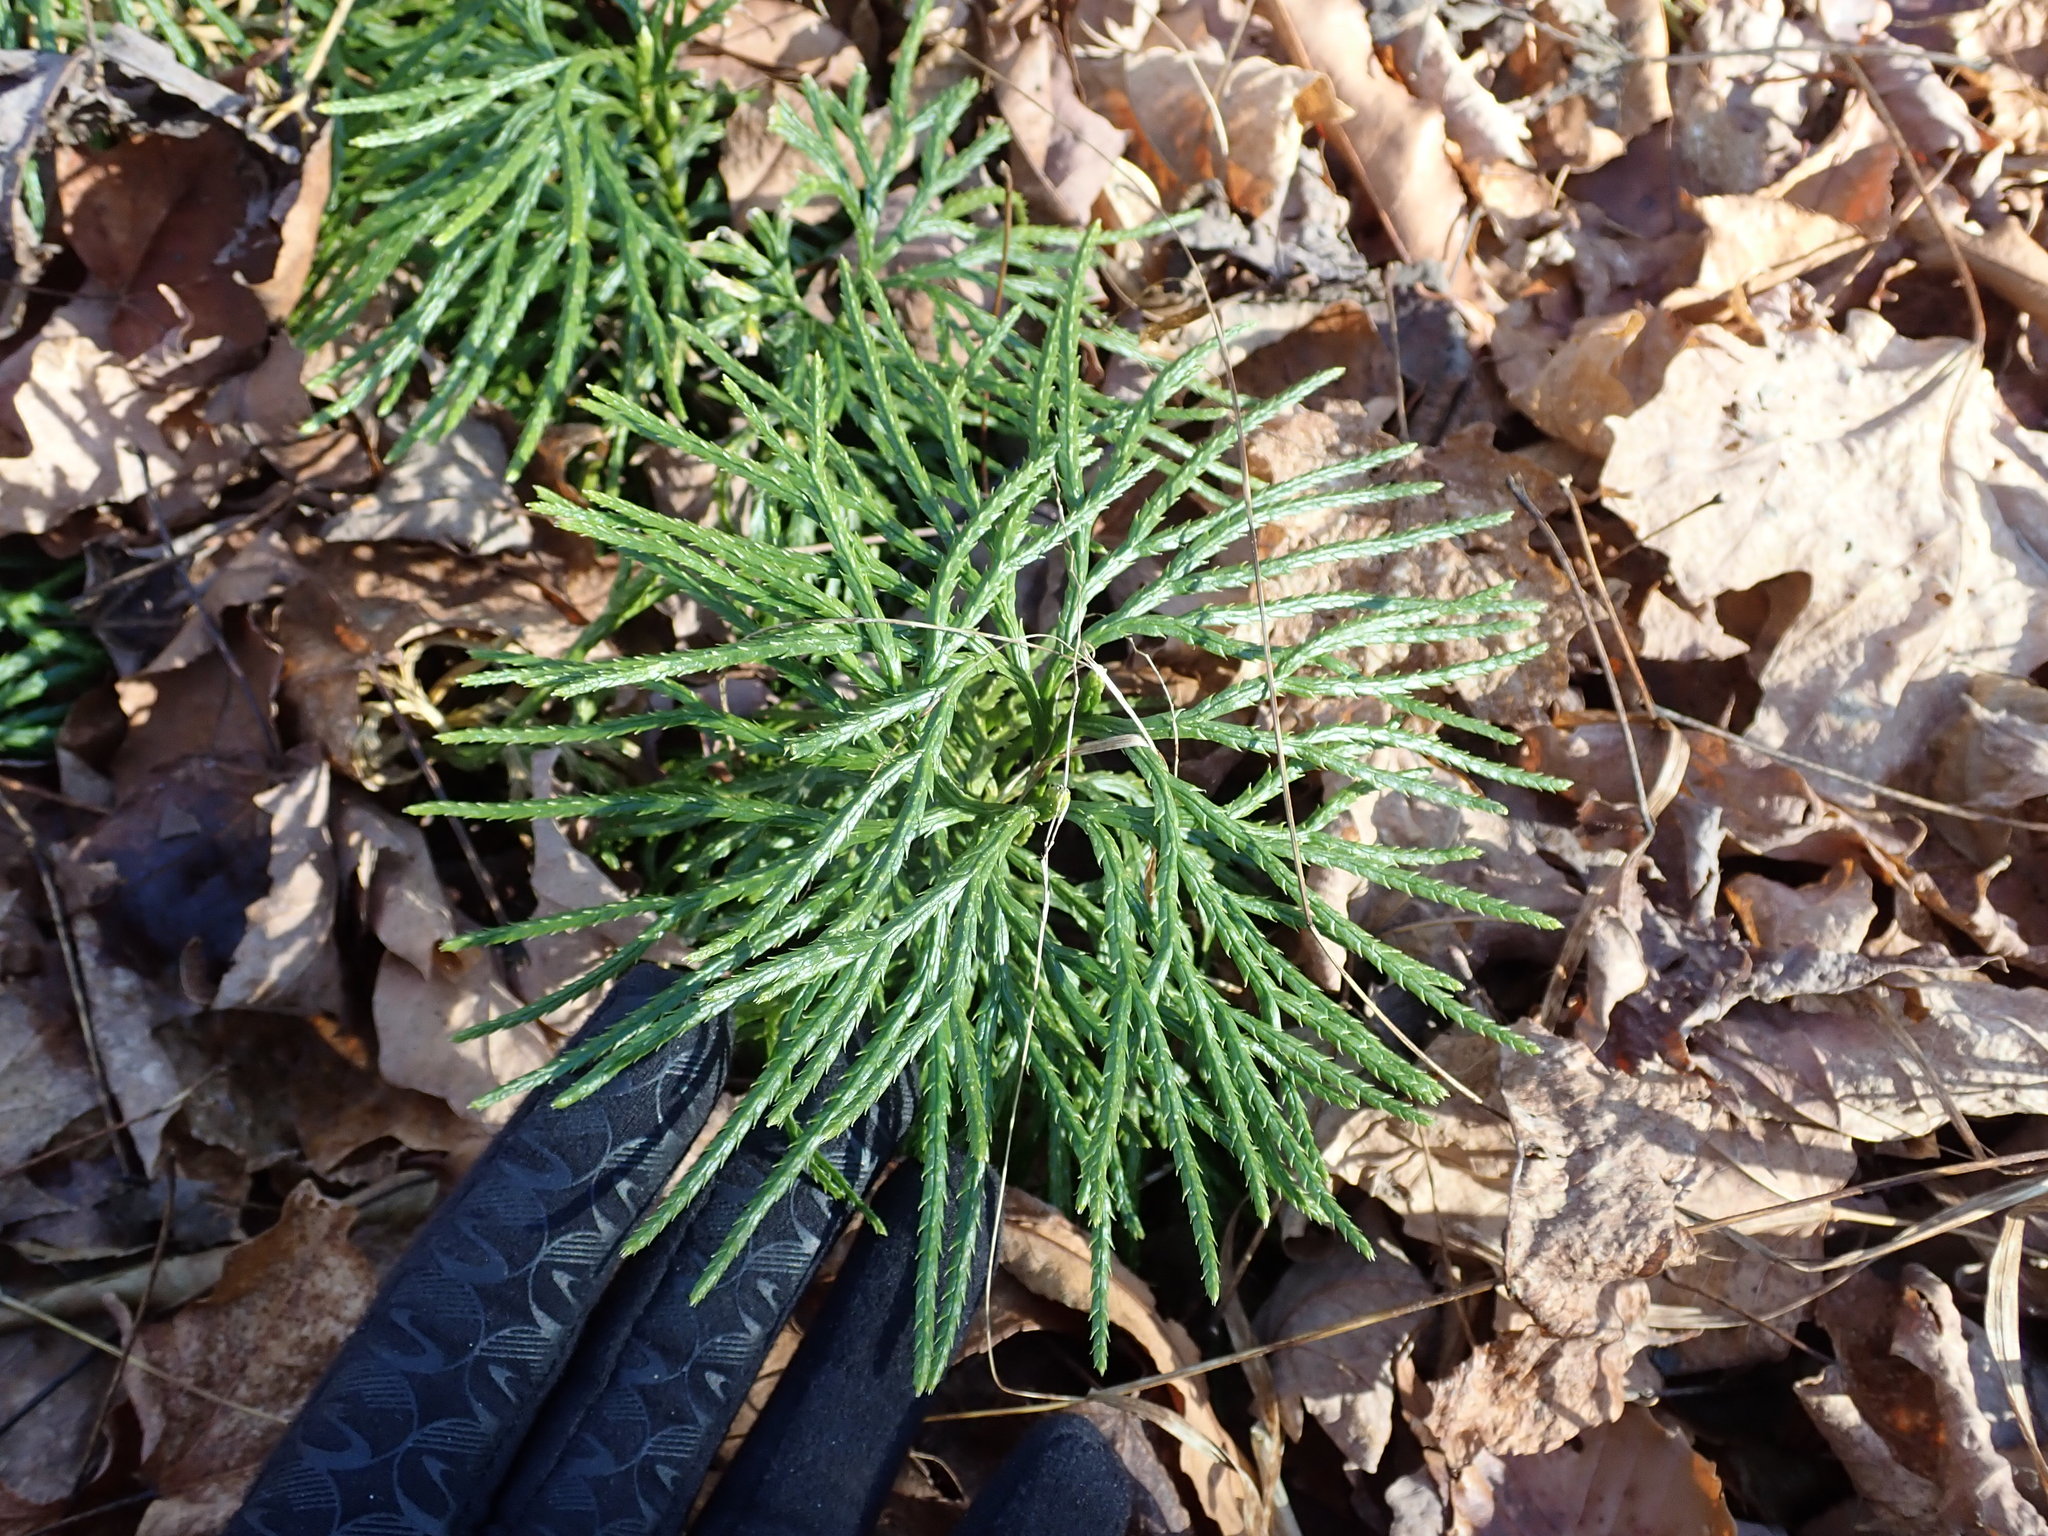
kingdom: Plantae
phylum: Tracheophyta
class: Lycopodiopsida
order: Lycopodiales
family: Lycopodiaceae
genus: Diphasiastrum
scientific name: Diphasiastrum digitatum
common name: Southern running-pine
